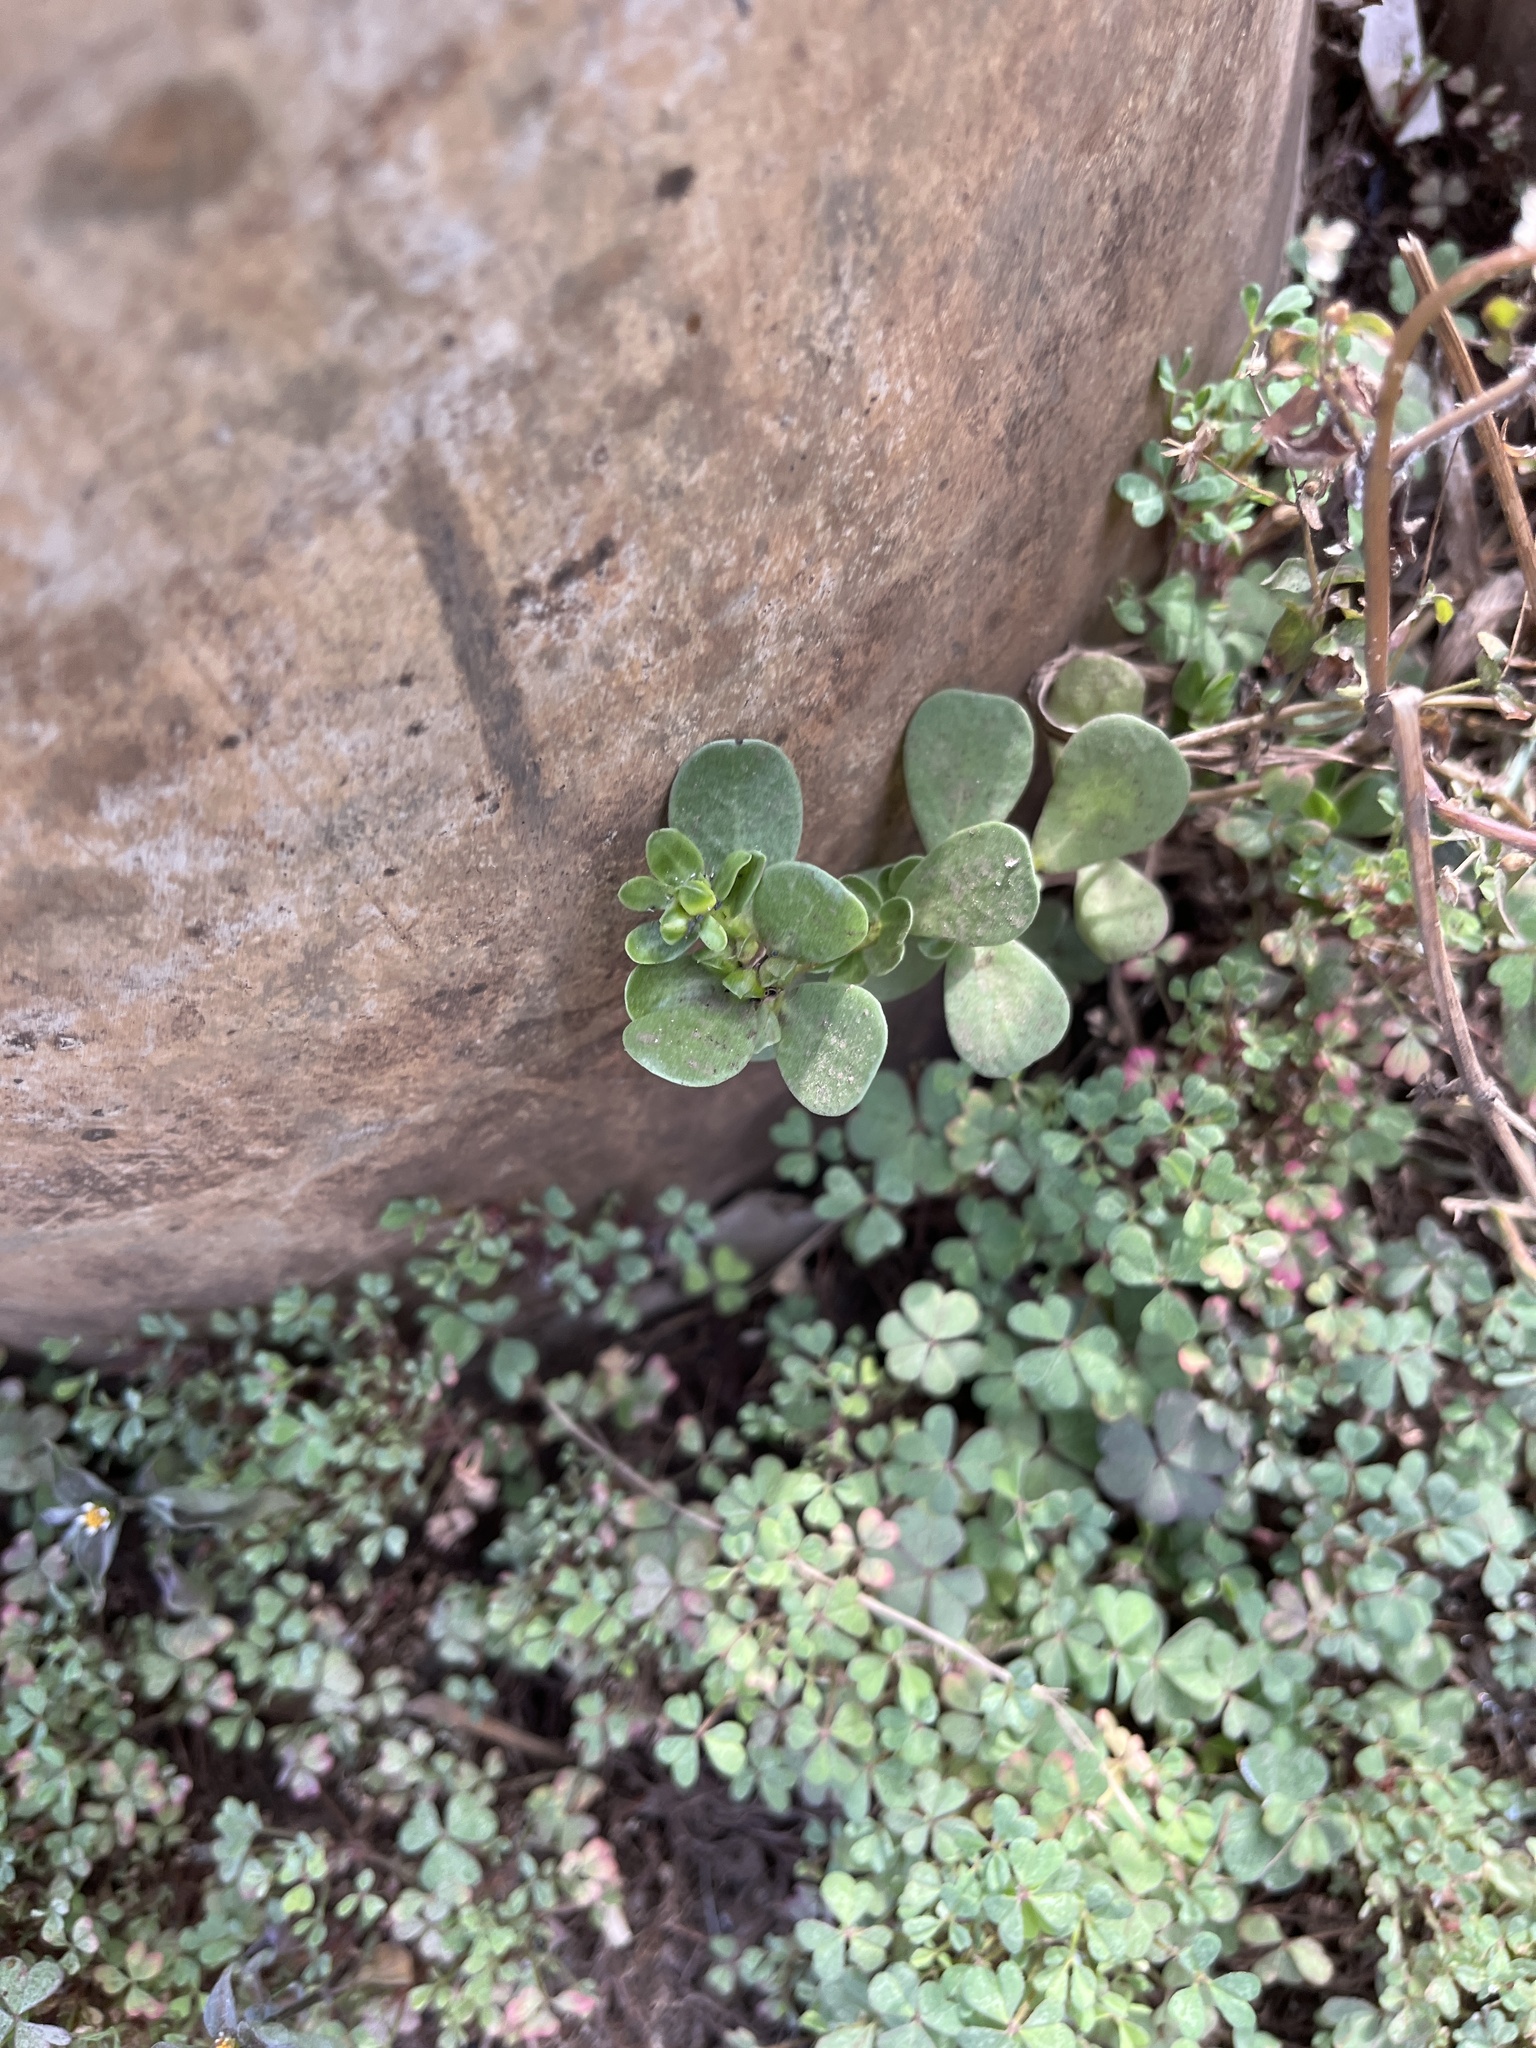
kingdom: Plantae
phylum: Tracheophyta
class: Magnoliopsida
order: Caryophyllales
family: Portulacaceae
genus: Portulaca
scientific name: Portulaca oleracea
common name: Common purslane
